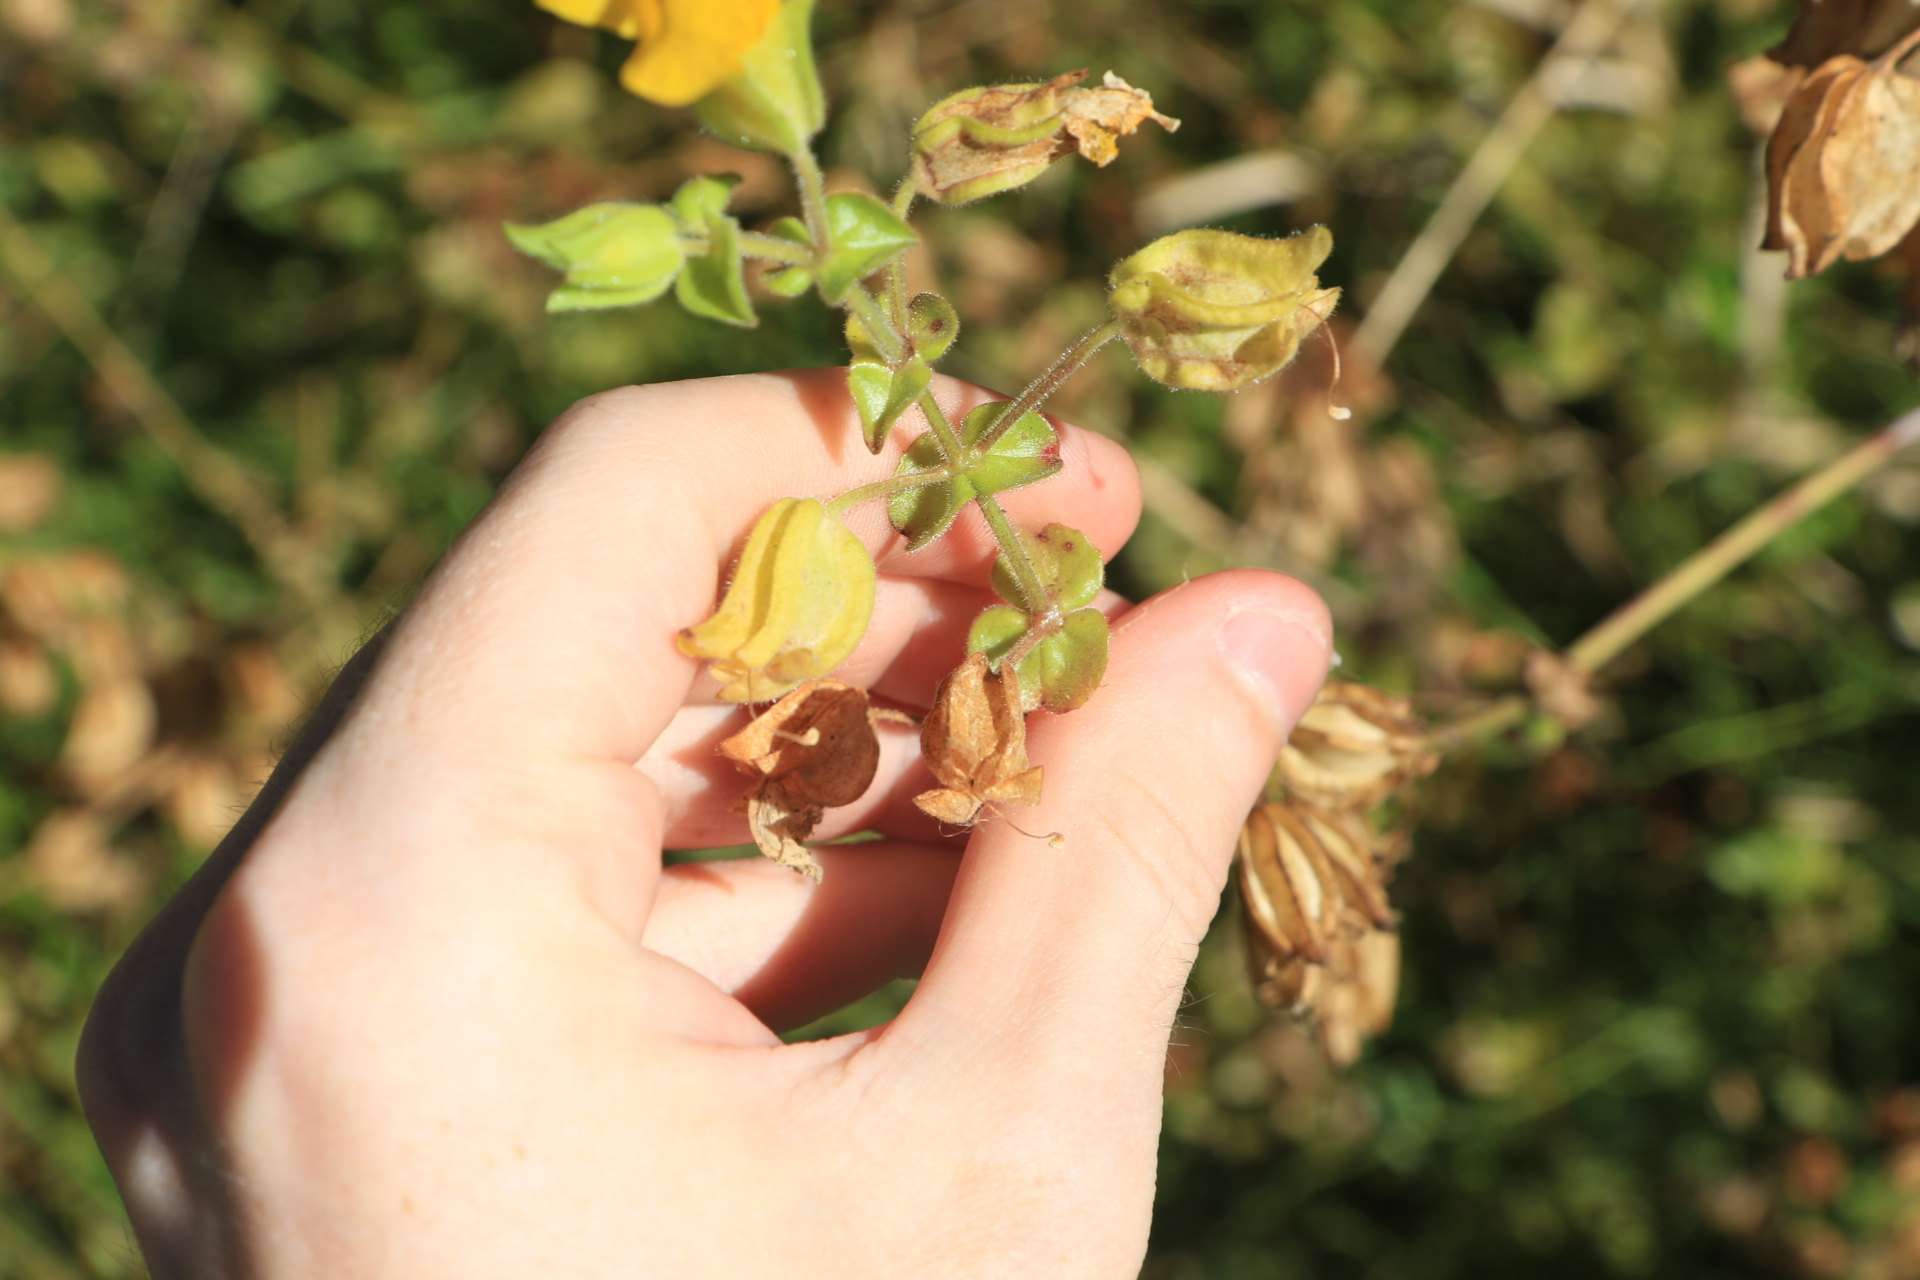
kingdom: Plantae
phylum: Tracheophyta
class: Magnoliopsida
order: Lamiales
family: Phrymaceae
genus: Erythranthe
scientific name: Erythranthe guttata
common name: Monkeyflower
